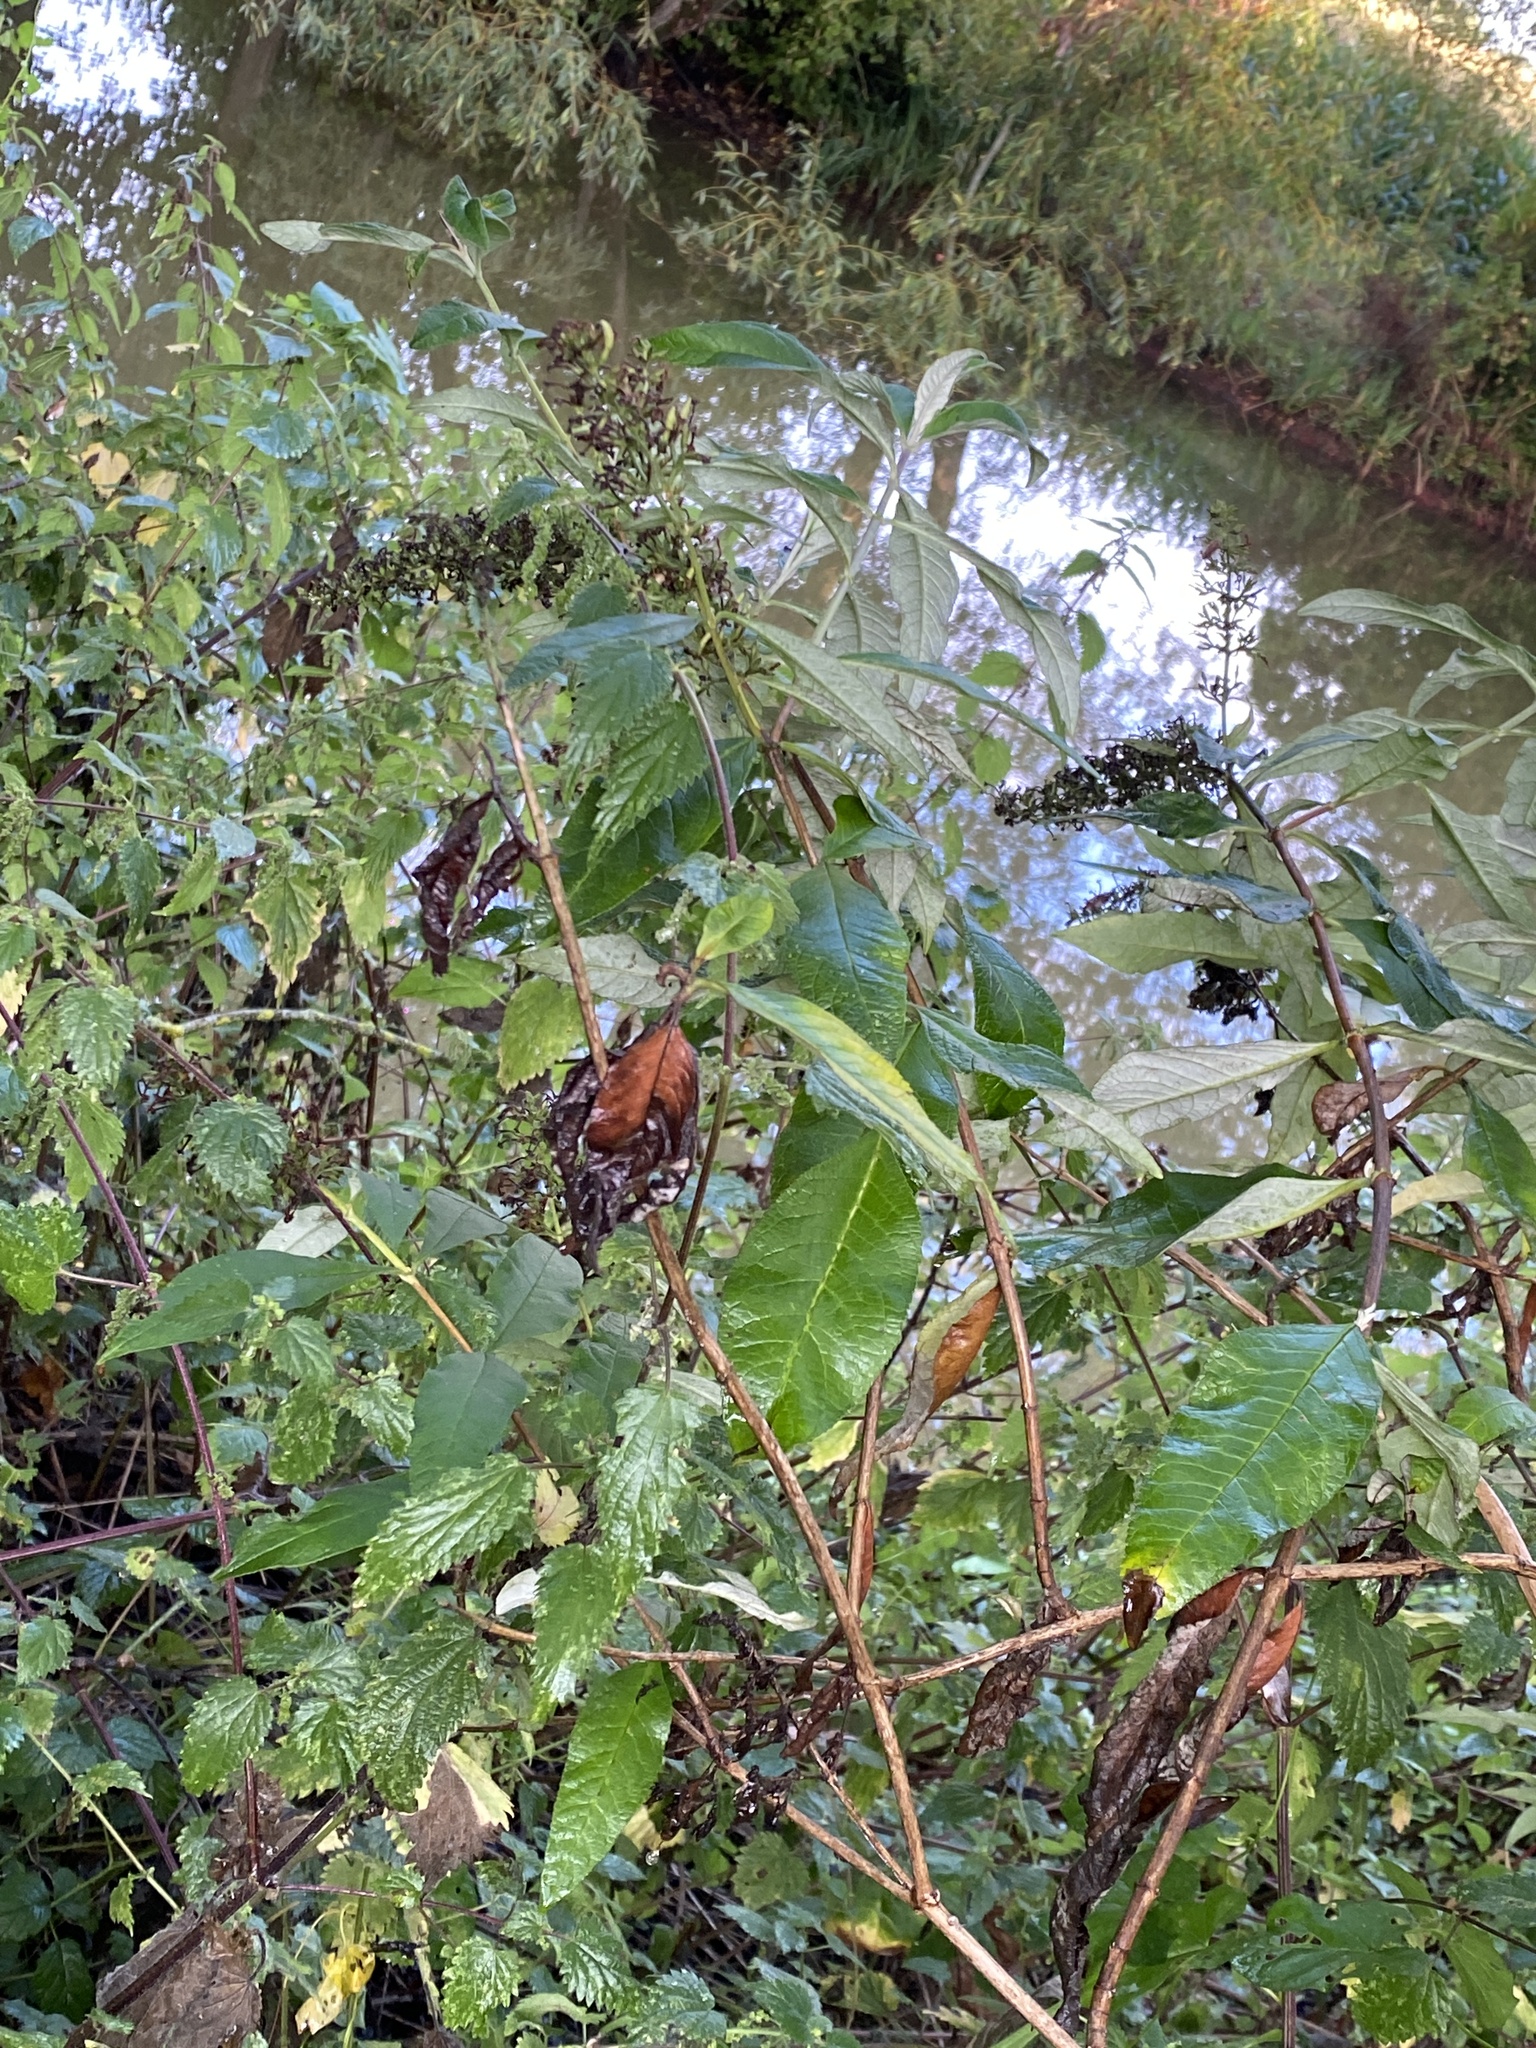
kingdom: Plantae
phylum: Tracheophyta
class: Magnoliopsida
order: Lamiales
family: Scrophulariaceae
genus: Buddleja
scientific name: Buddleja davidii
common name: Butterfly-bush
